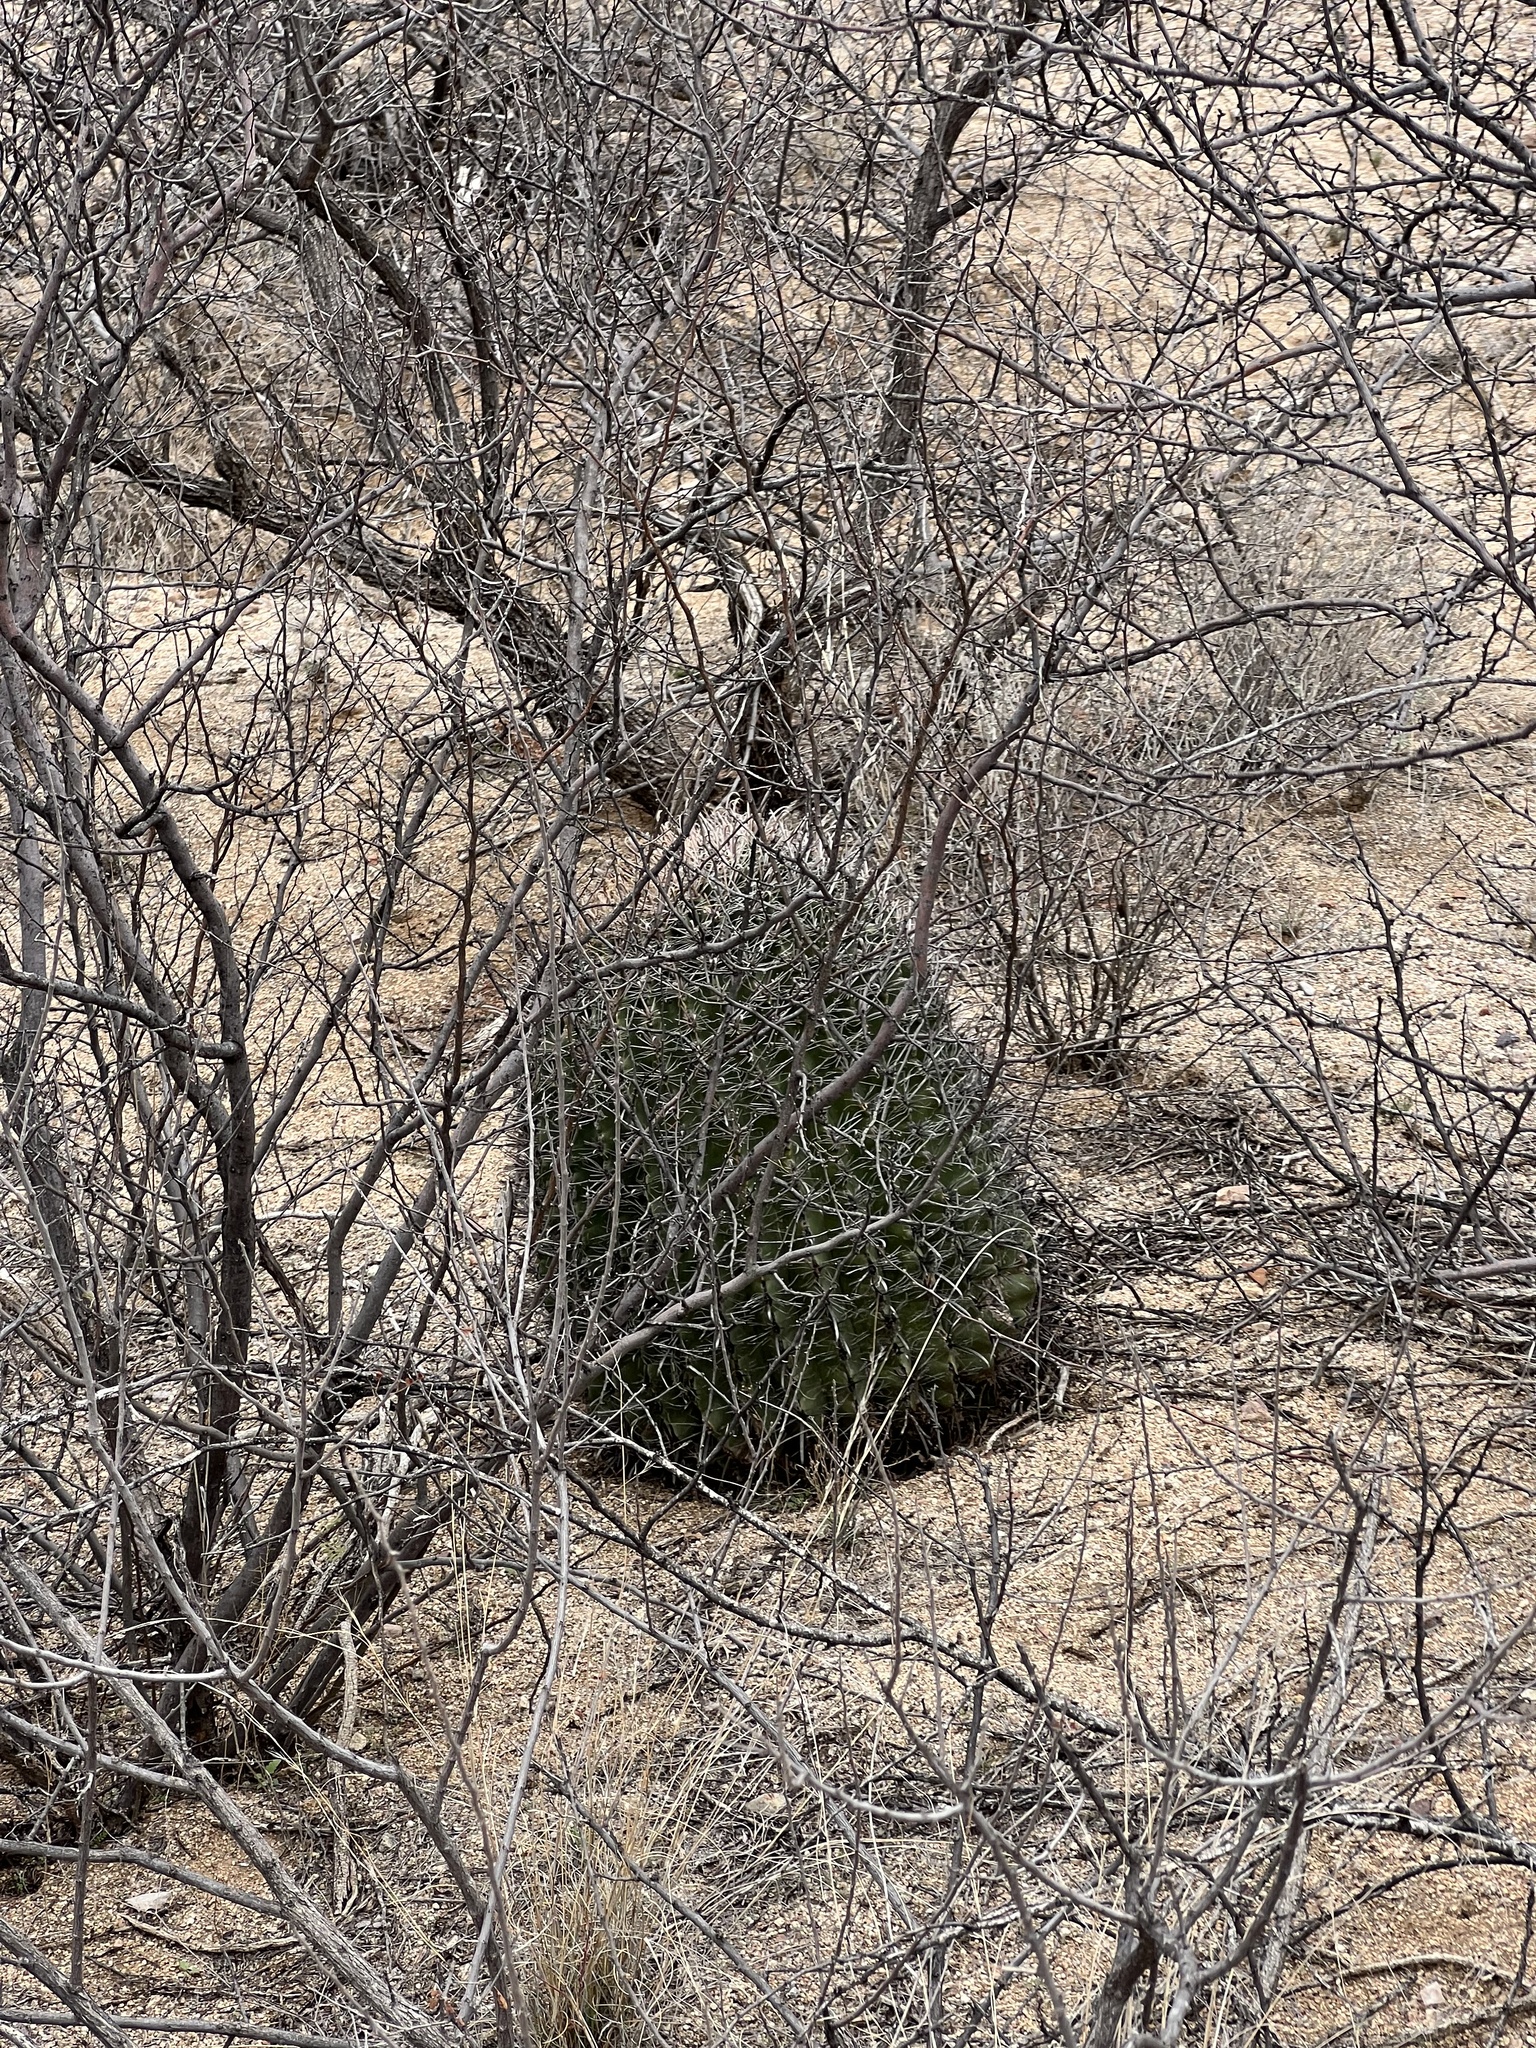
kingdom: Plantae
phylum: Tracheophyta
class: Magnoliopsida
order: Caryophyllales
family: Cactaceae
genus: Ferocactus
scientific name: Ferocactus wislizeni
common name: Candy barrel cactus
